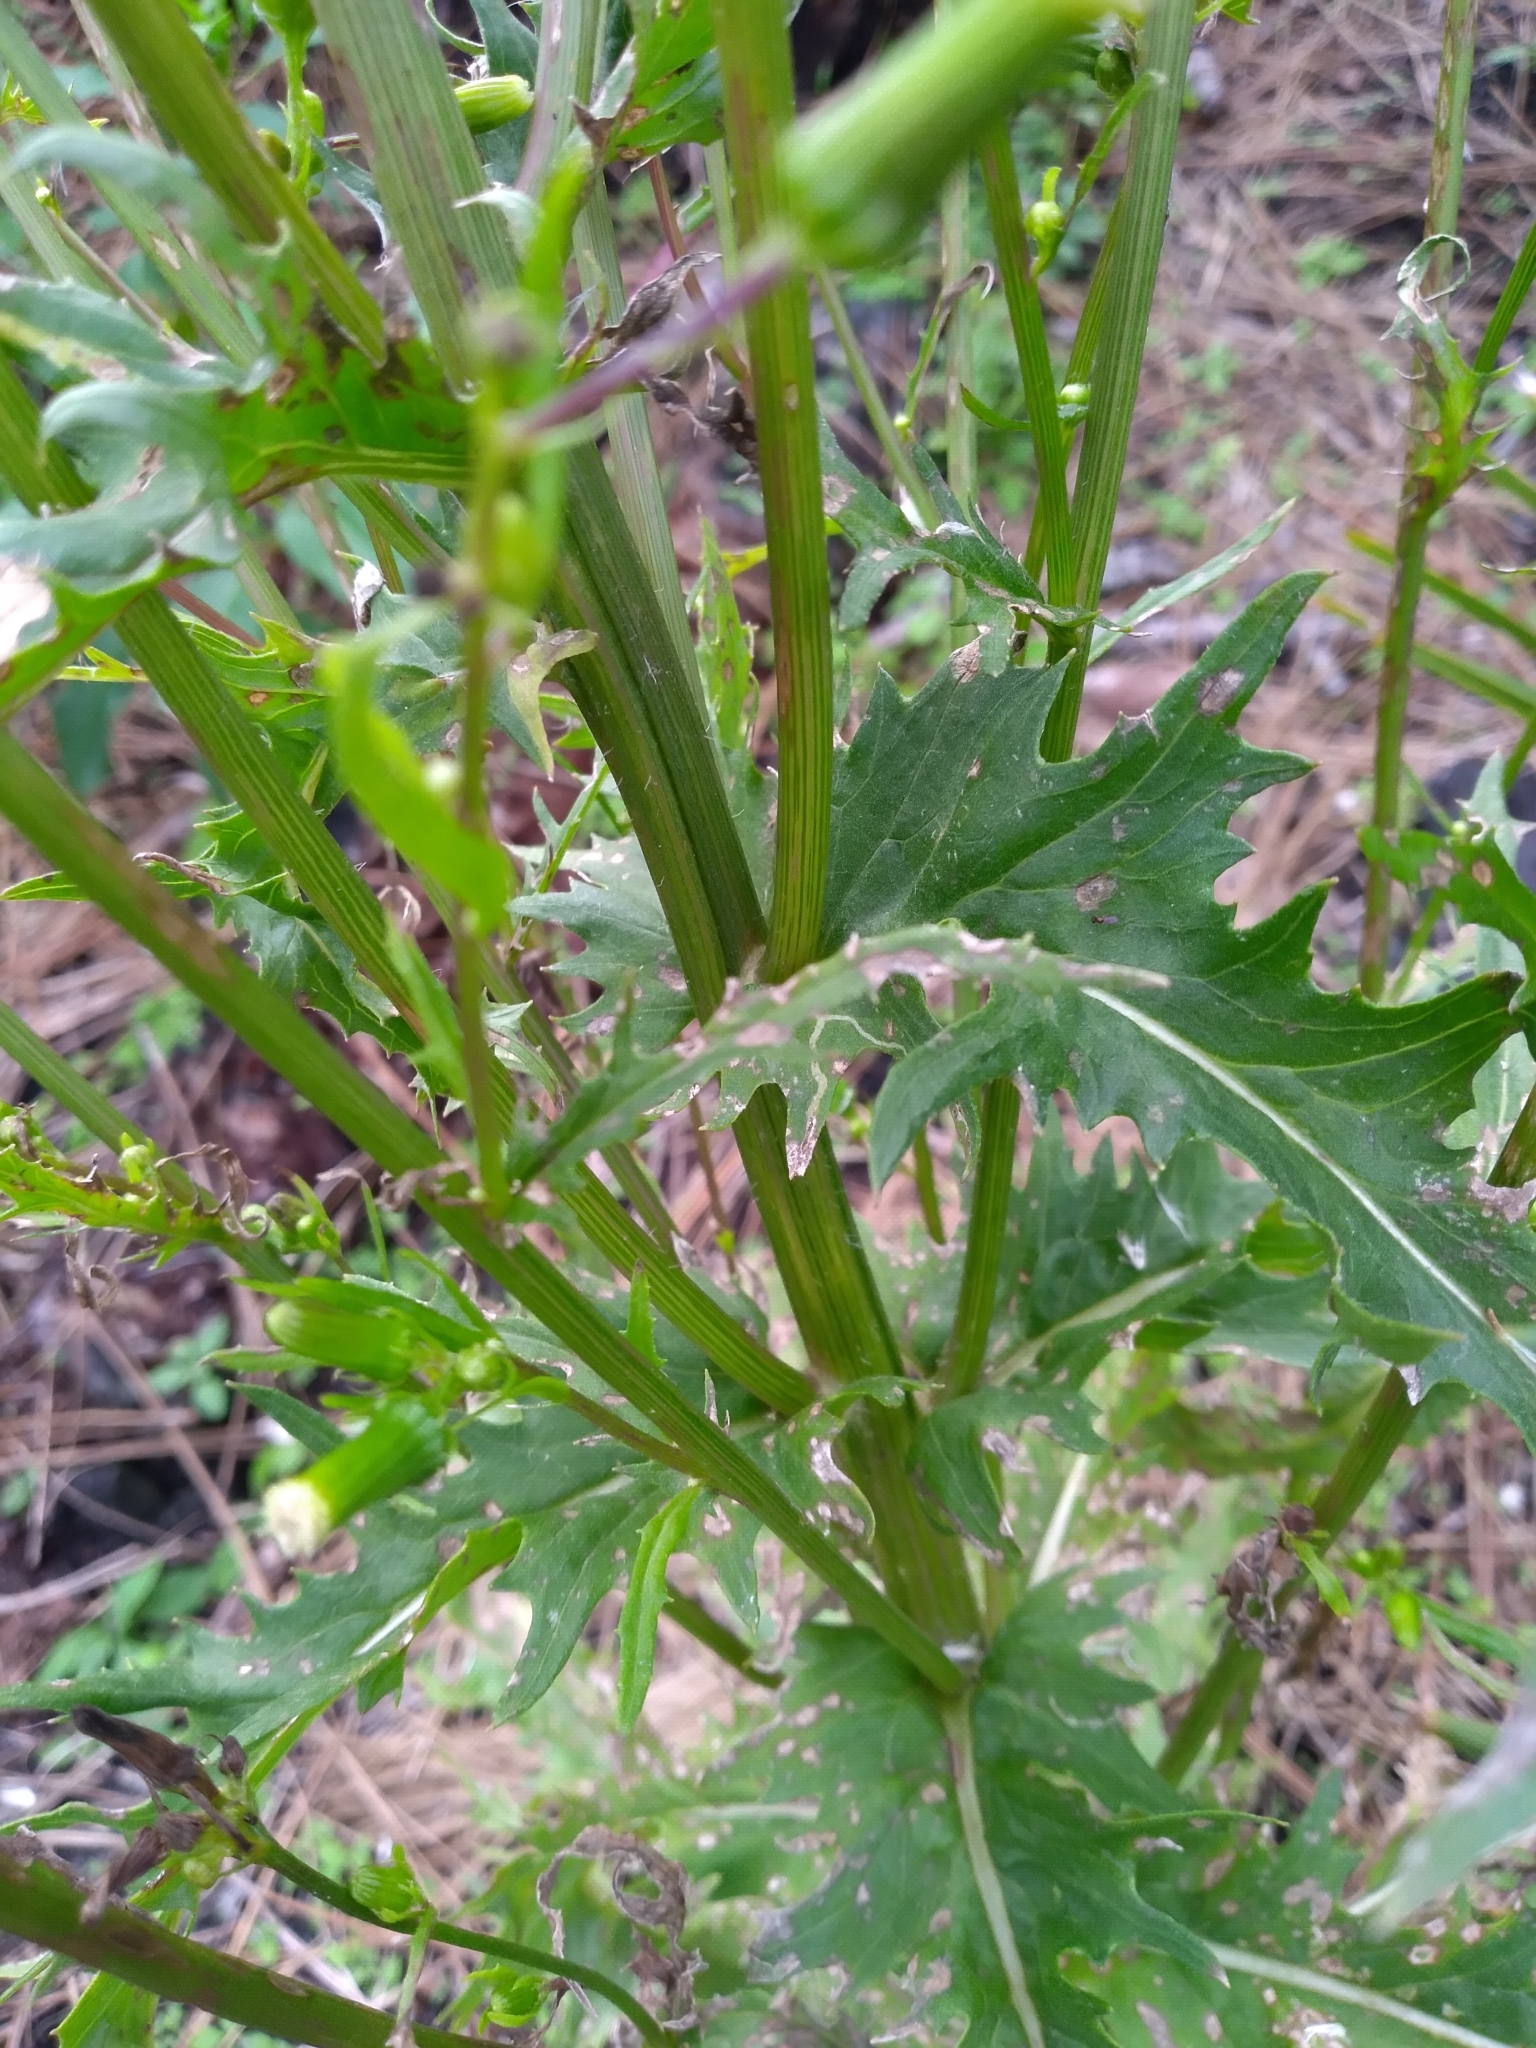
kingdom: Plantae
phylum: Tracheophyta
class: Magnoliopsida
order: Asterales
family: Asteraceae
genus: Erechtites
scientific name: Erechtites hieraciifolius
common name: American burnweed
